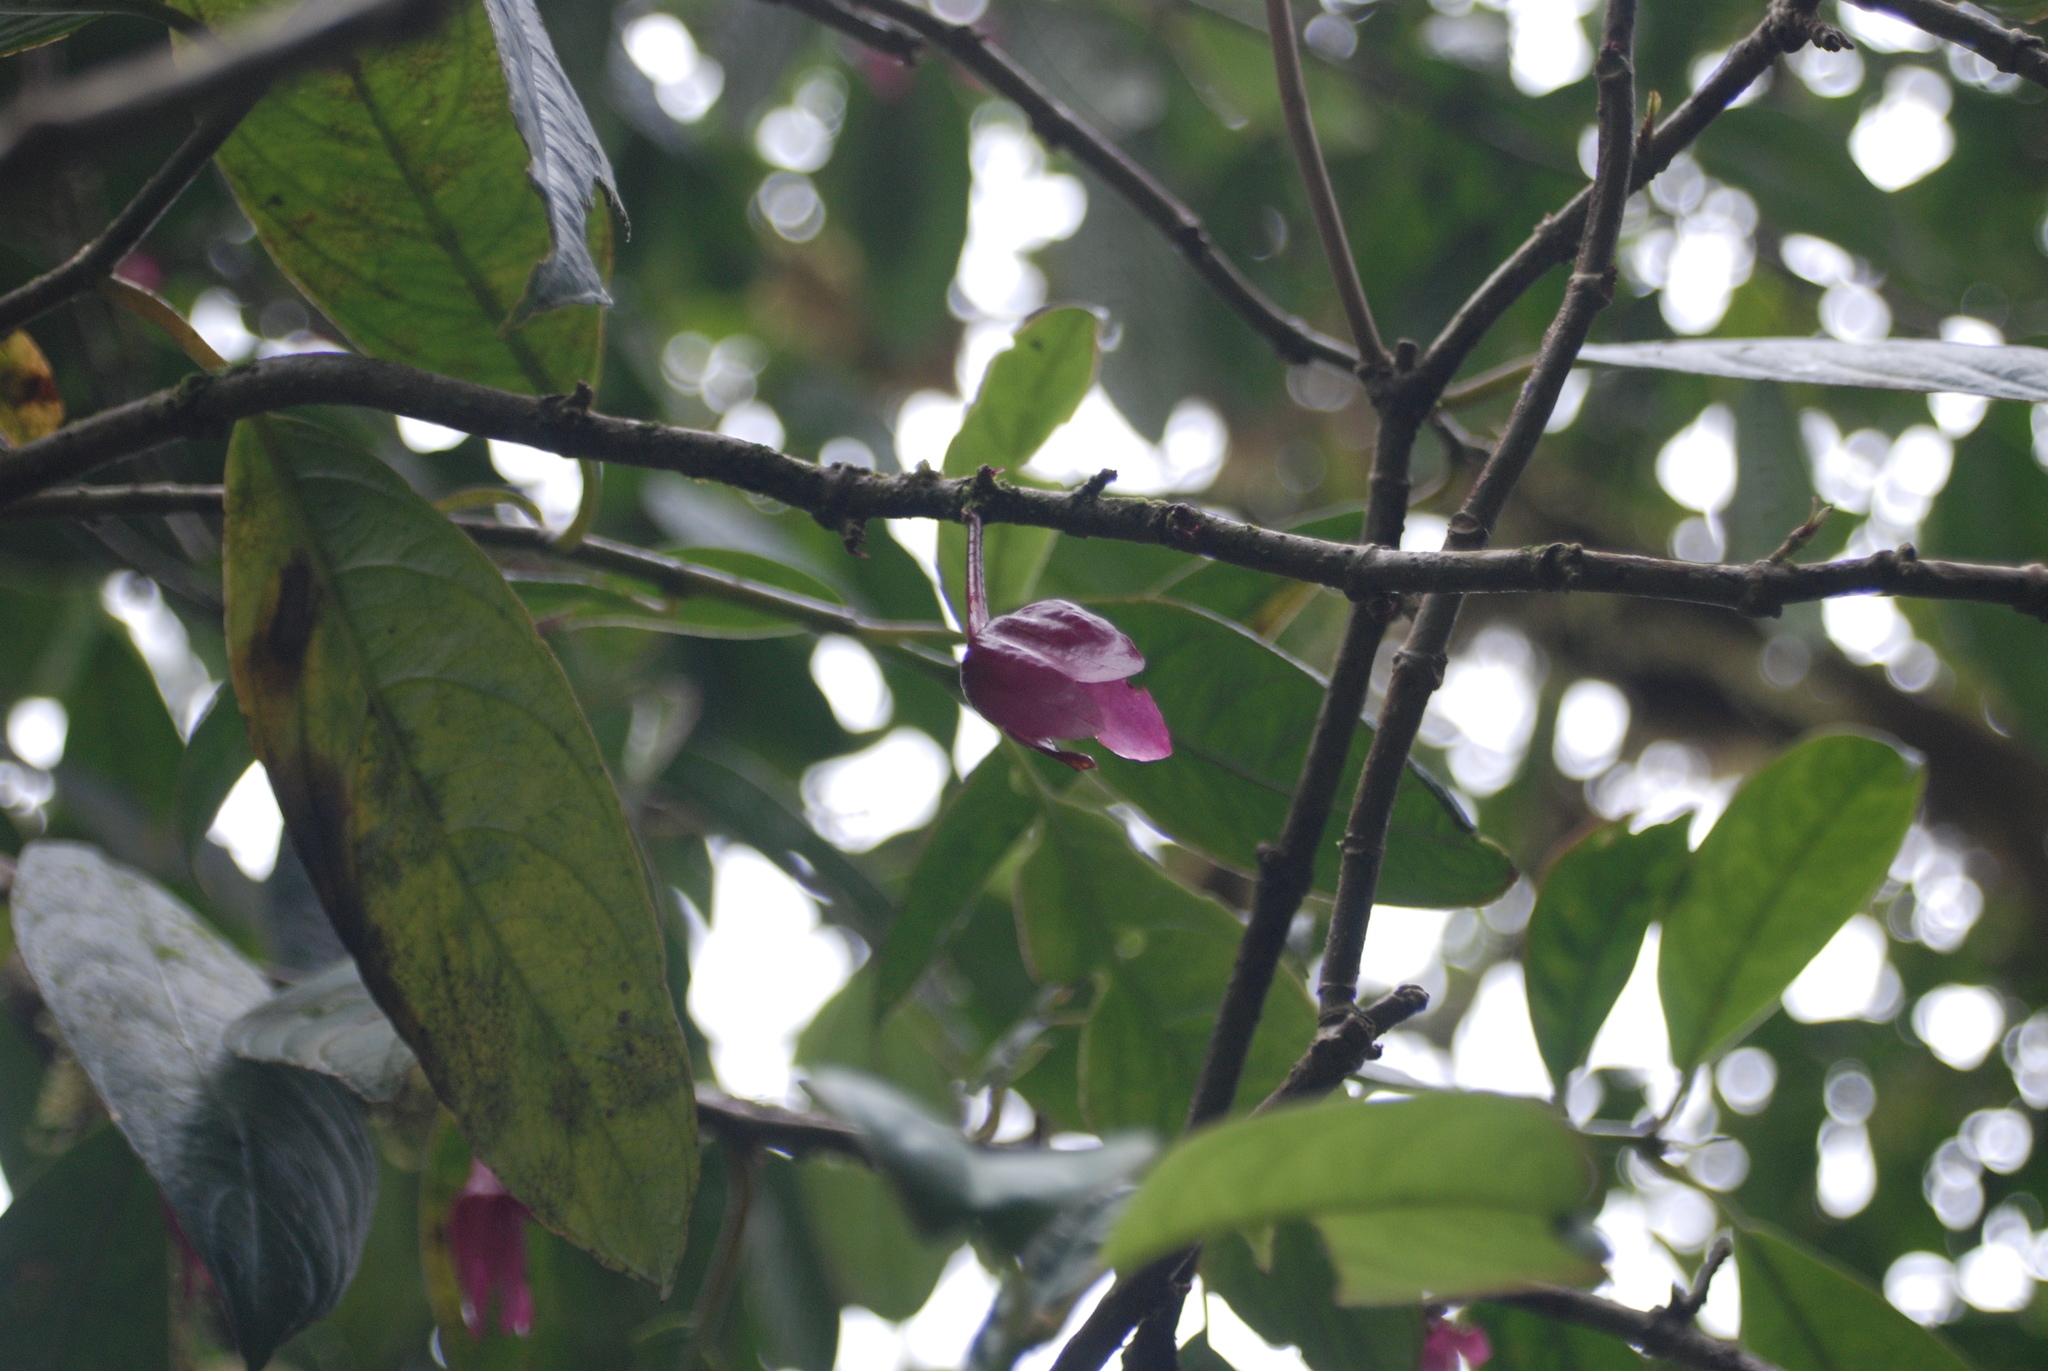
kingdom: Plantae
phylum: Tracheophyta
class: Magnoliopsida
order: Lamiales
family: Gesneriaceae
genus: Drymonia
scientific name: Drymonia conchocalyx
